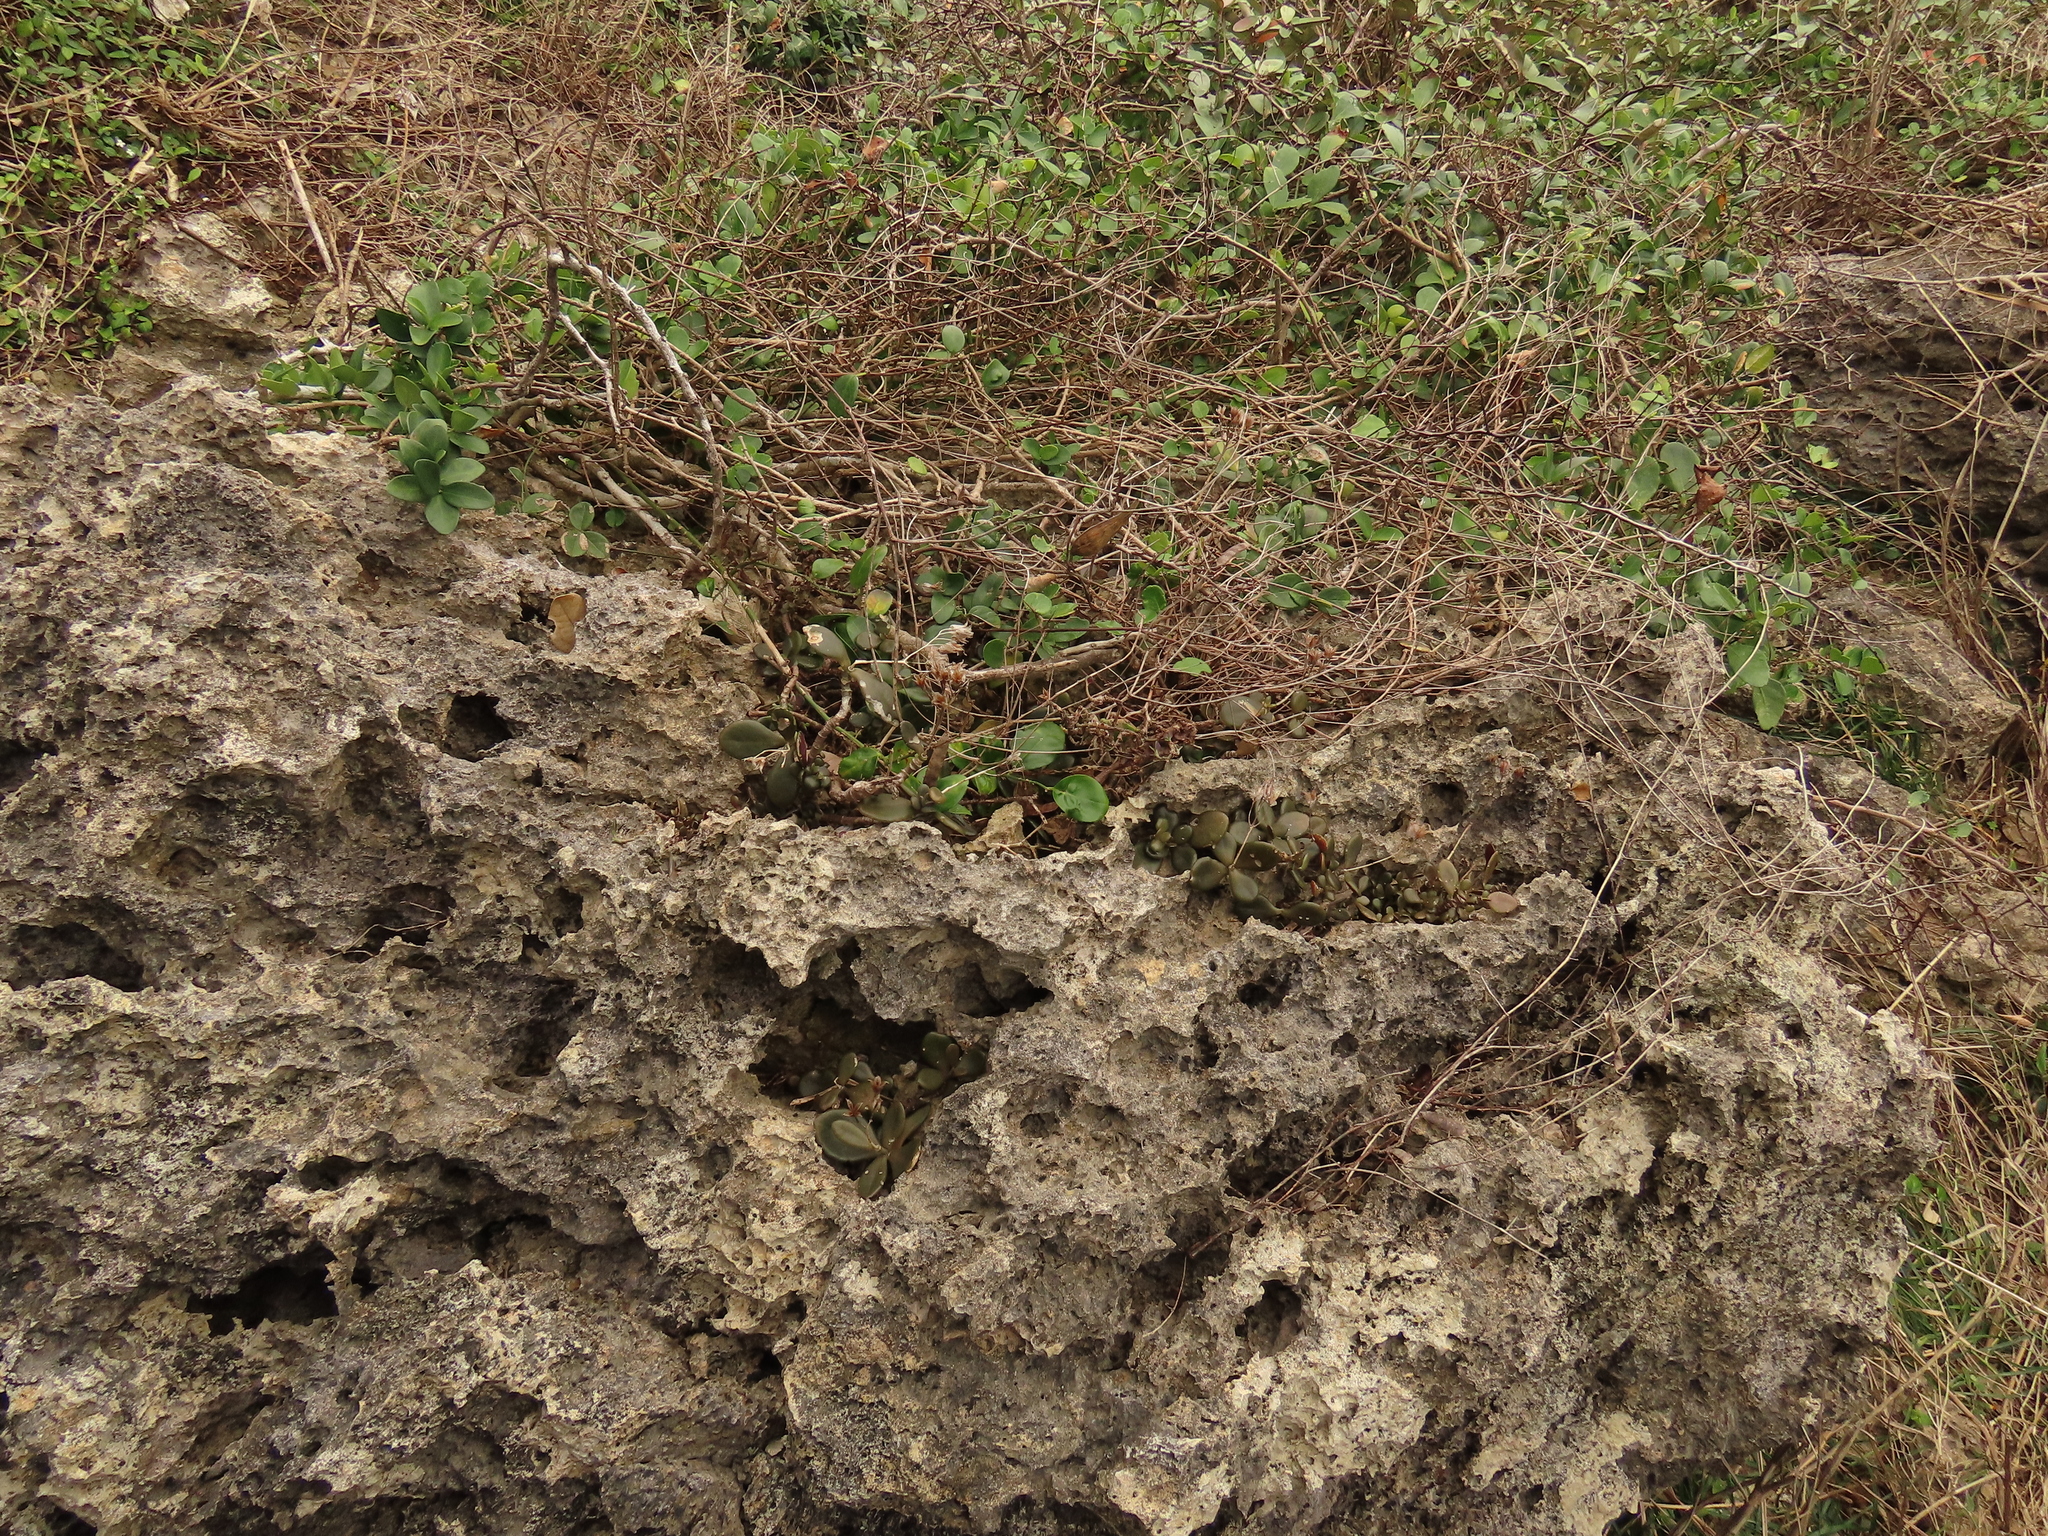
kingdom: Plantae
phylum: Tracheophyta
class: Magnoliopsida
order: Saxifragales
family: Crassulaceae
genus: Kalanchoe
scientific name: Kalanchoe integra
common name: Neverdie
